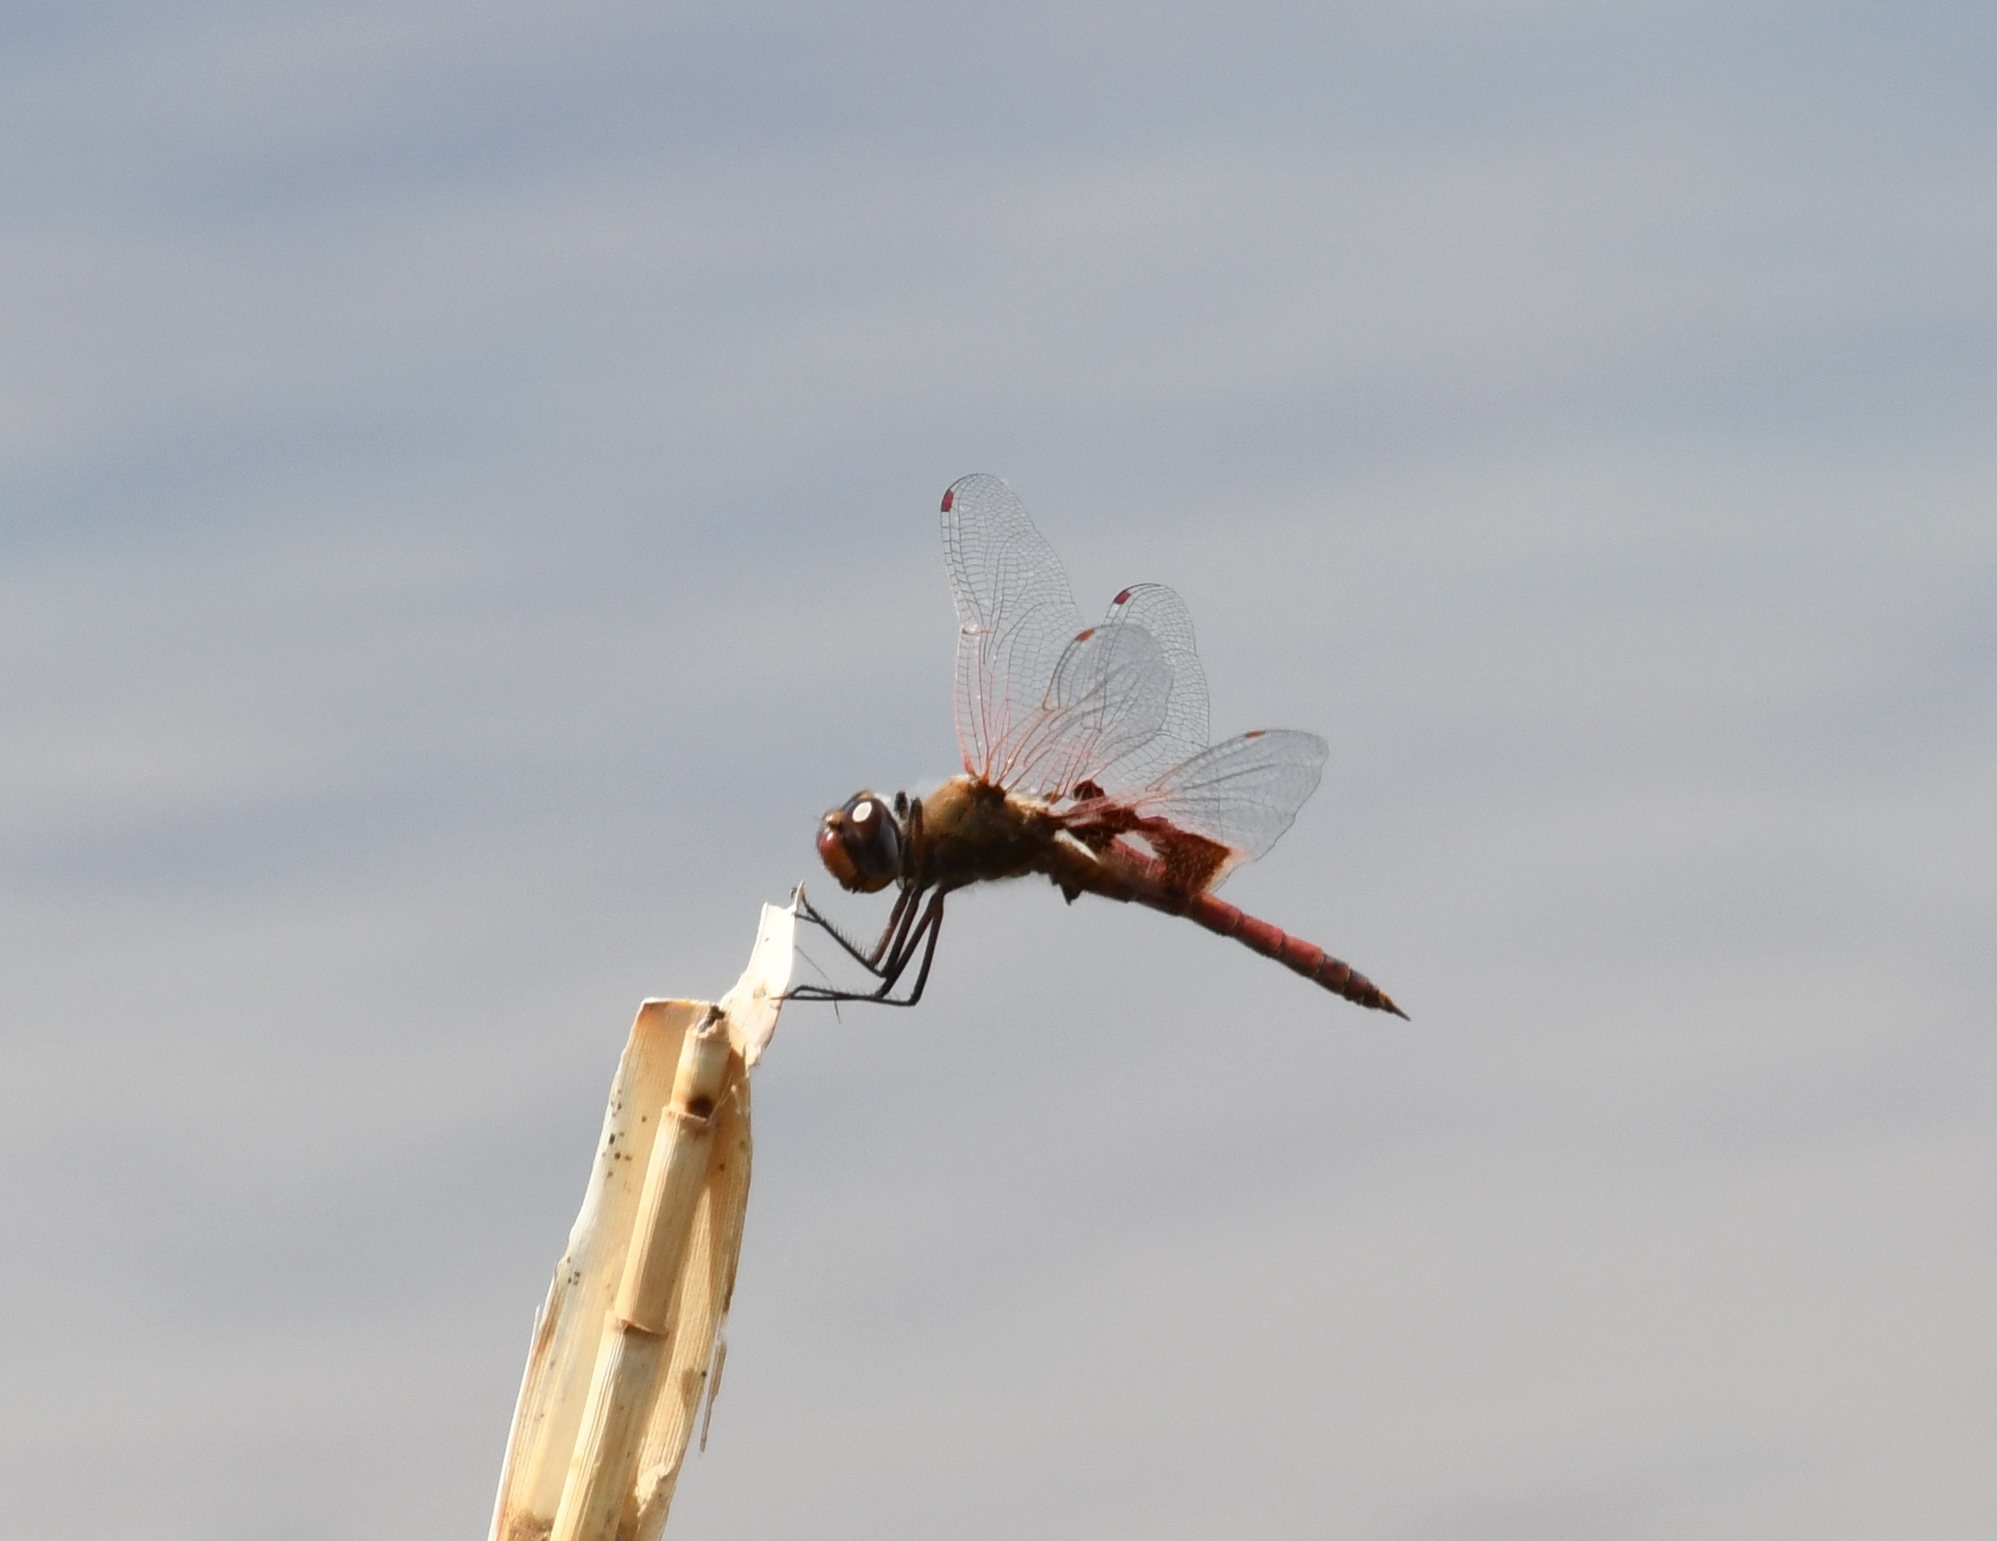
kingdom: Animalia
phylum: Arthropoda
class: Insecta
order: Odonata
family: Libellulidae
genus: Tramea
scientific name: Tramea onusta
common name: Red saddlebags
